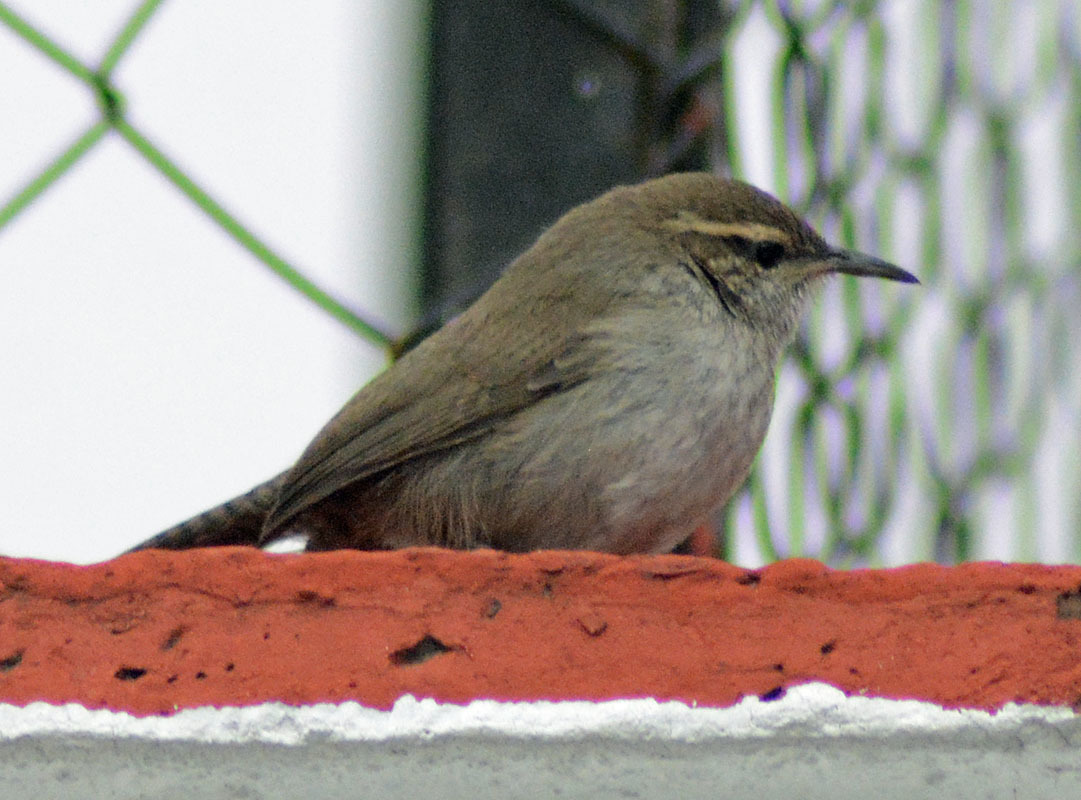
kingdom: Animalia
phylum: Chordata
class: Aves
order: Passeriformes
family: Troglodytidae
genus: Thryomanes
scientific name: Thryomanes bewickii
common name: Bewick's wren
